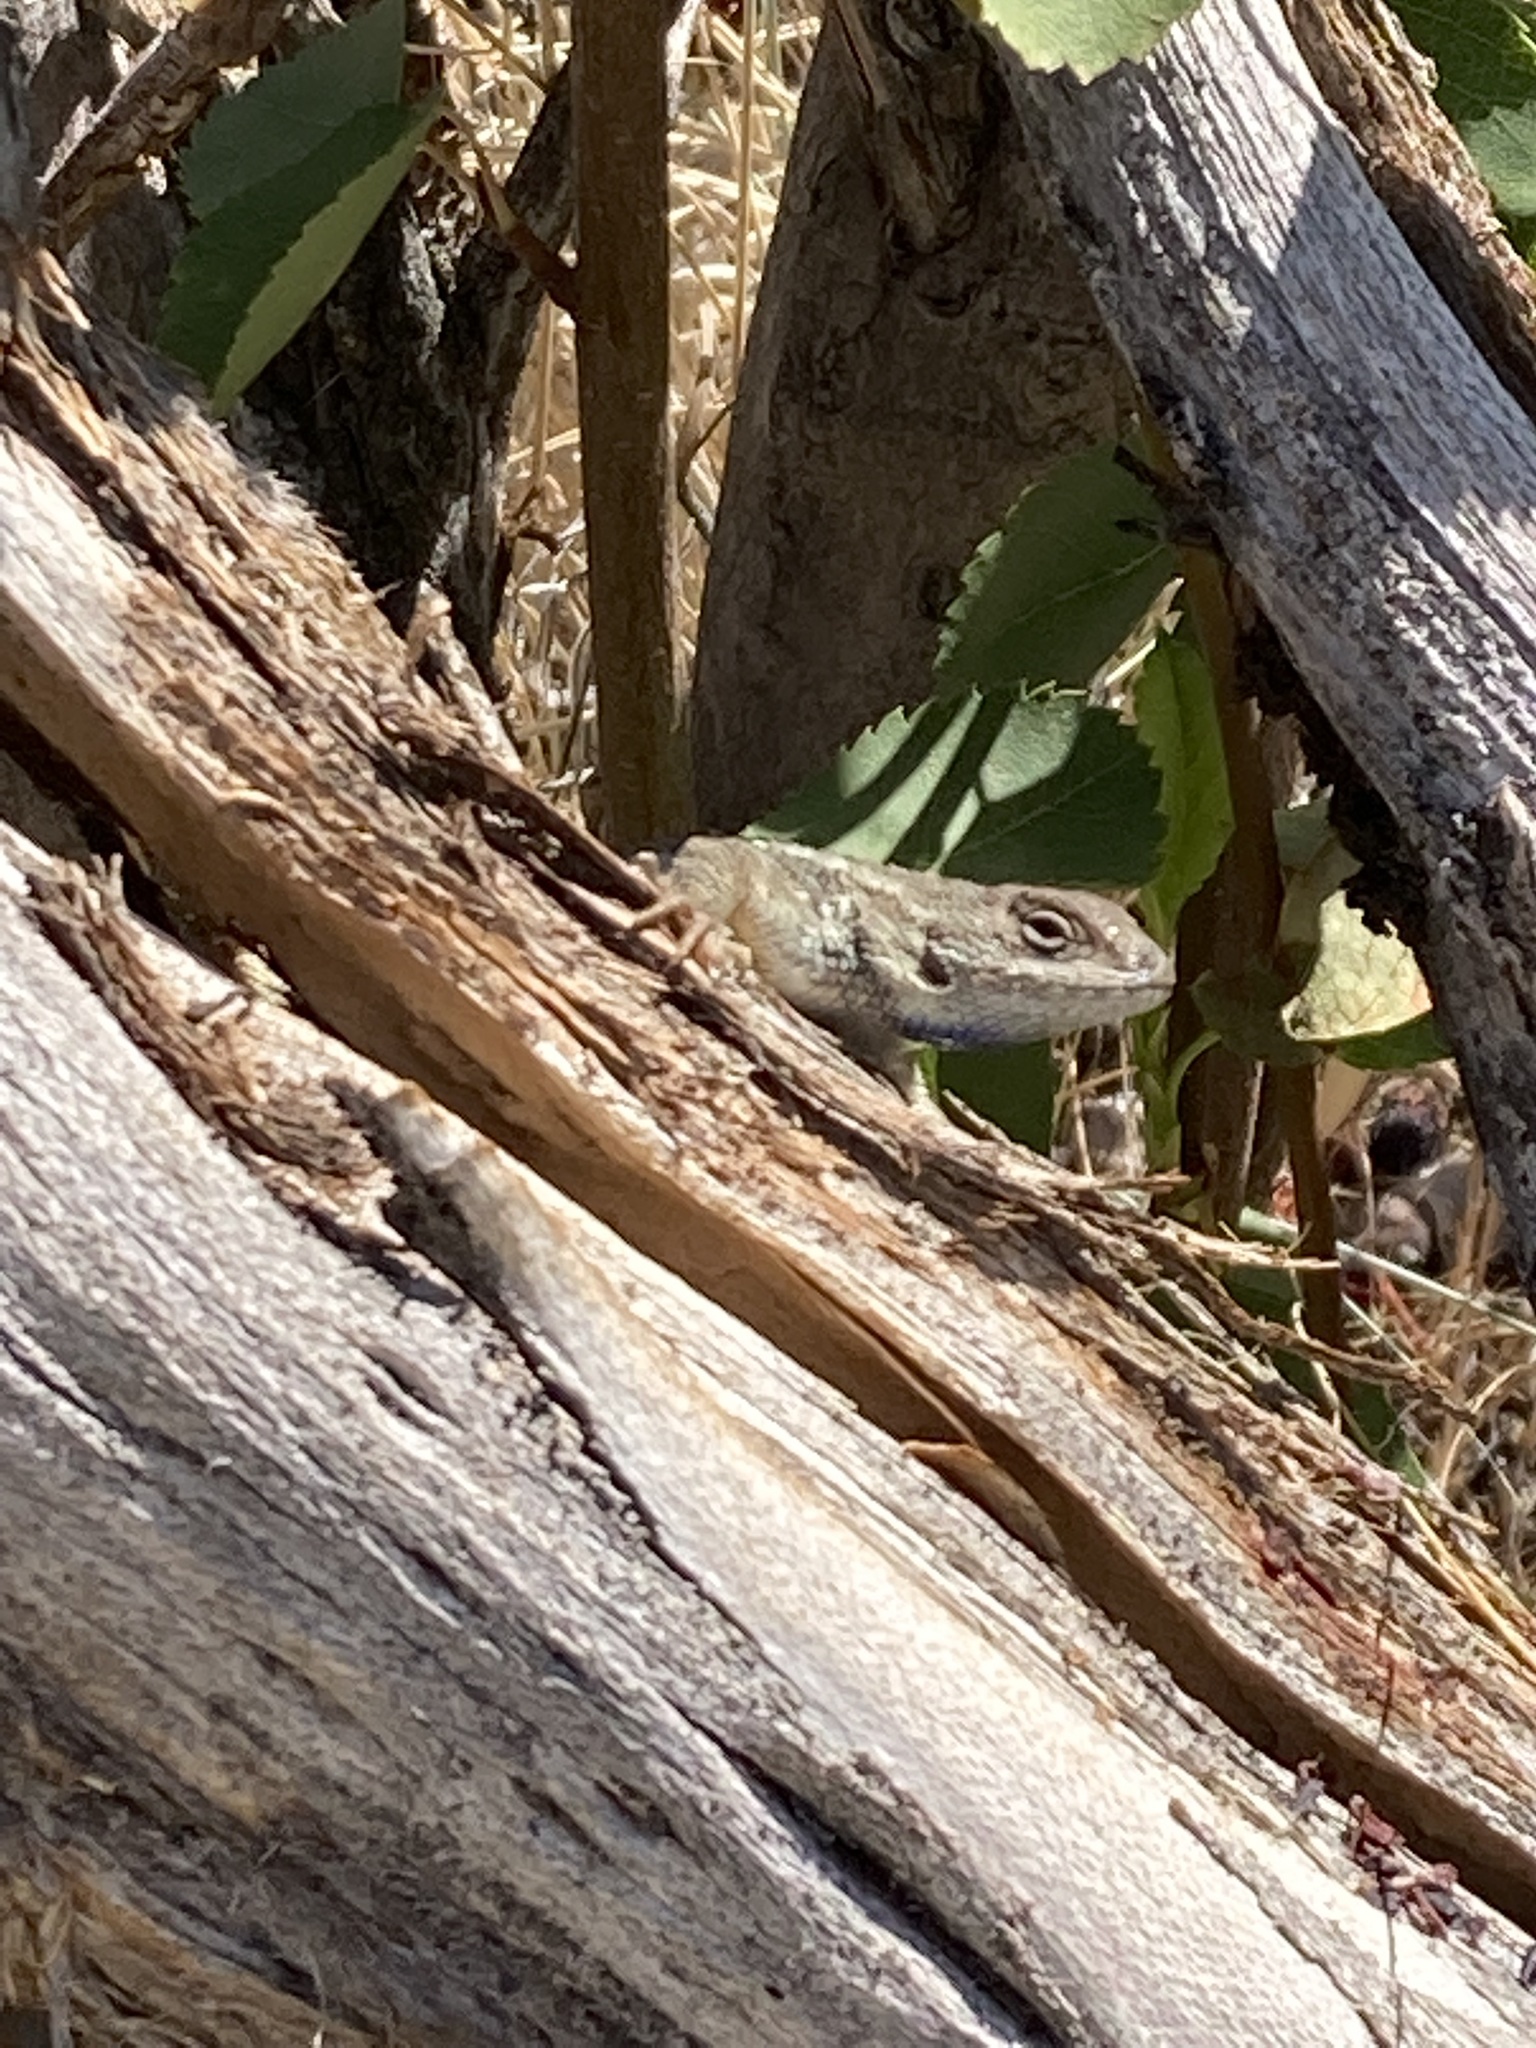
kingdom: Animalia
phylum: Chordata
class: Squamata
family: Phrynosomatidae
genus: Sceloporus
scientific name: Sceloporus occidentalis
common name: Western fence lizard
